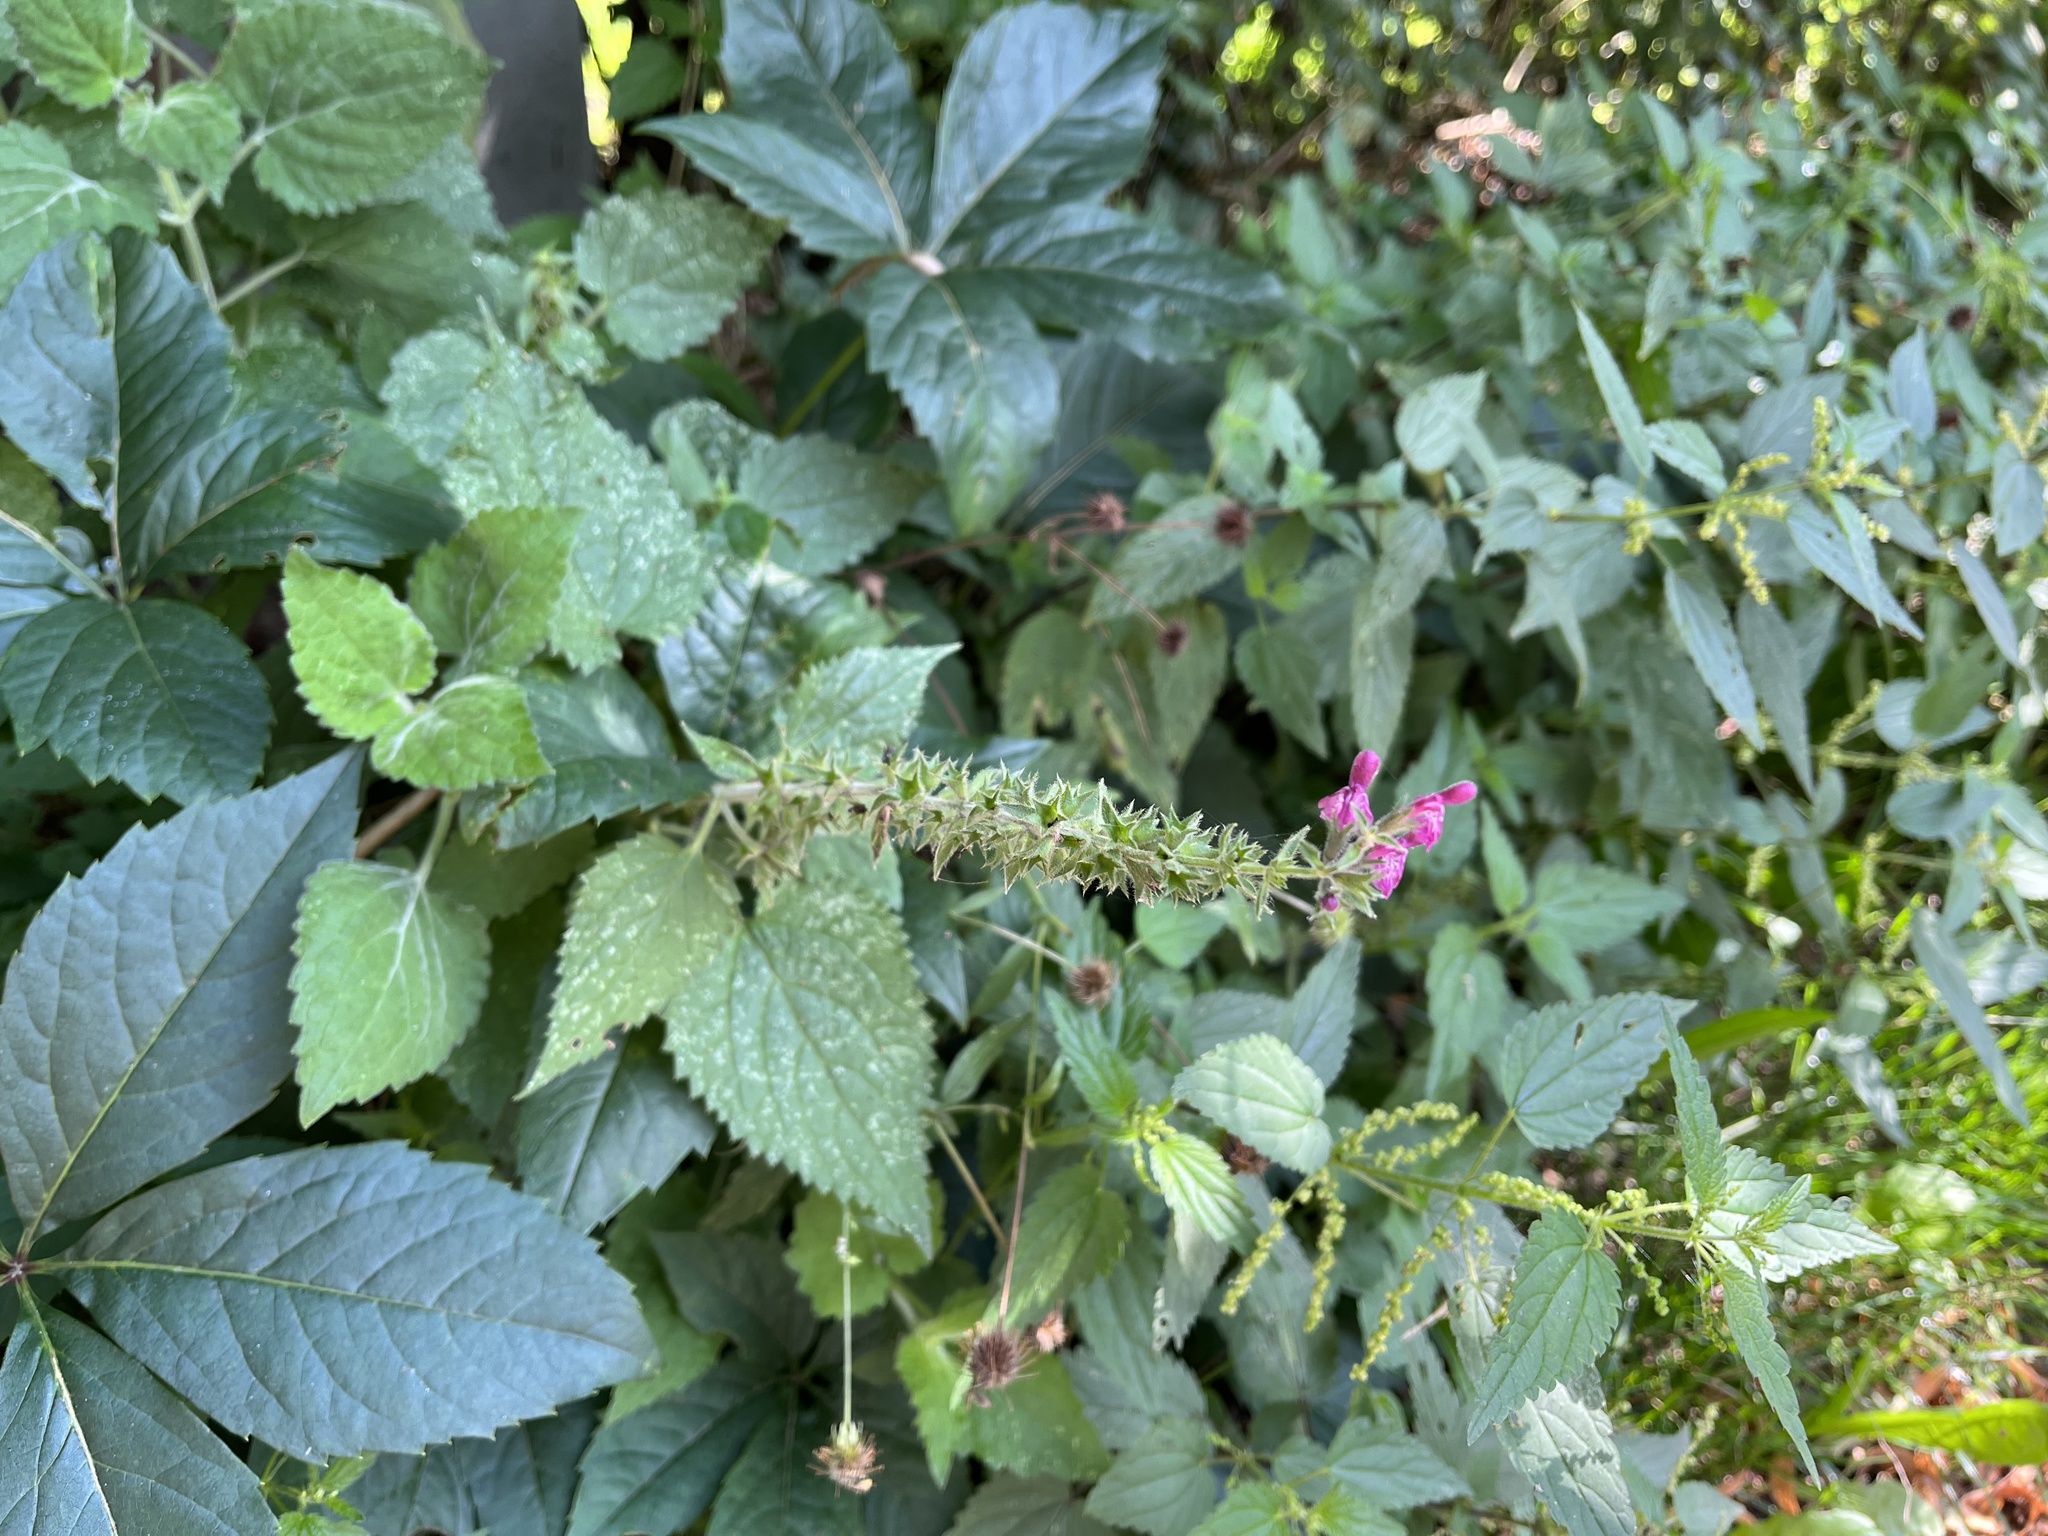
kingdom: Plantae
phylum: Tracheophyta
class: Magnoliopsida
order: Lamiales
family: Lamiaceae
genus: Stachys
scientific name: Stachys sylvatica
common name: Hedge woundwort
